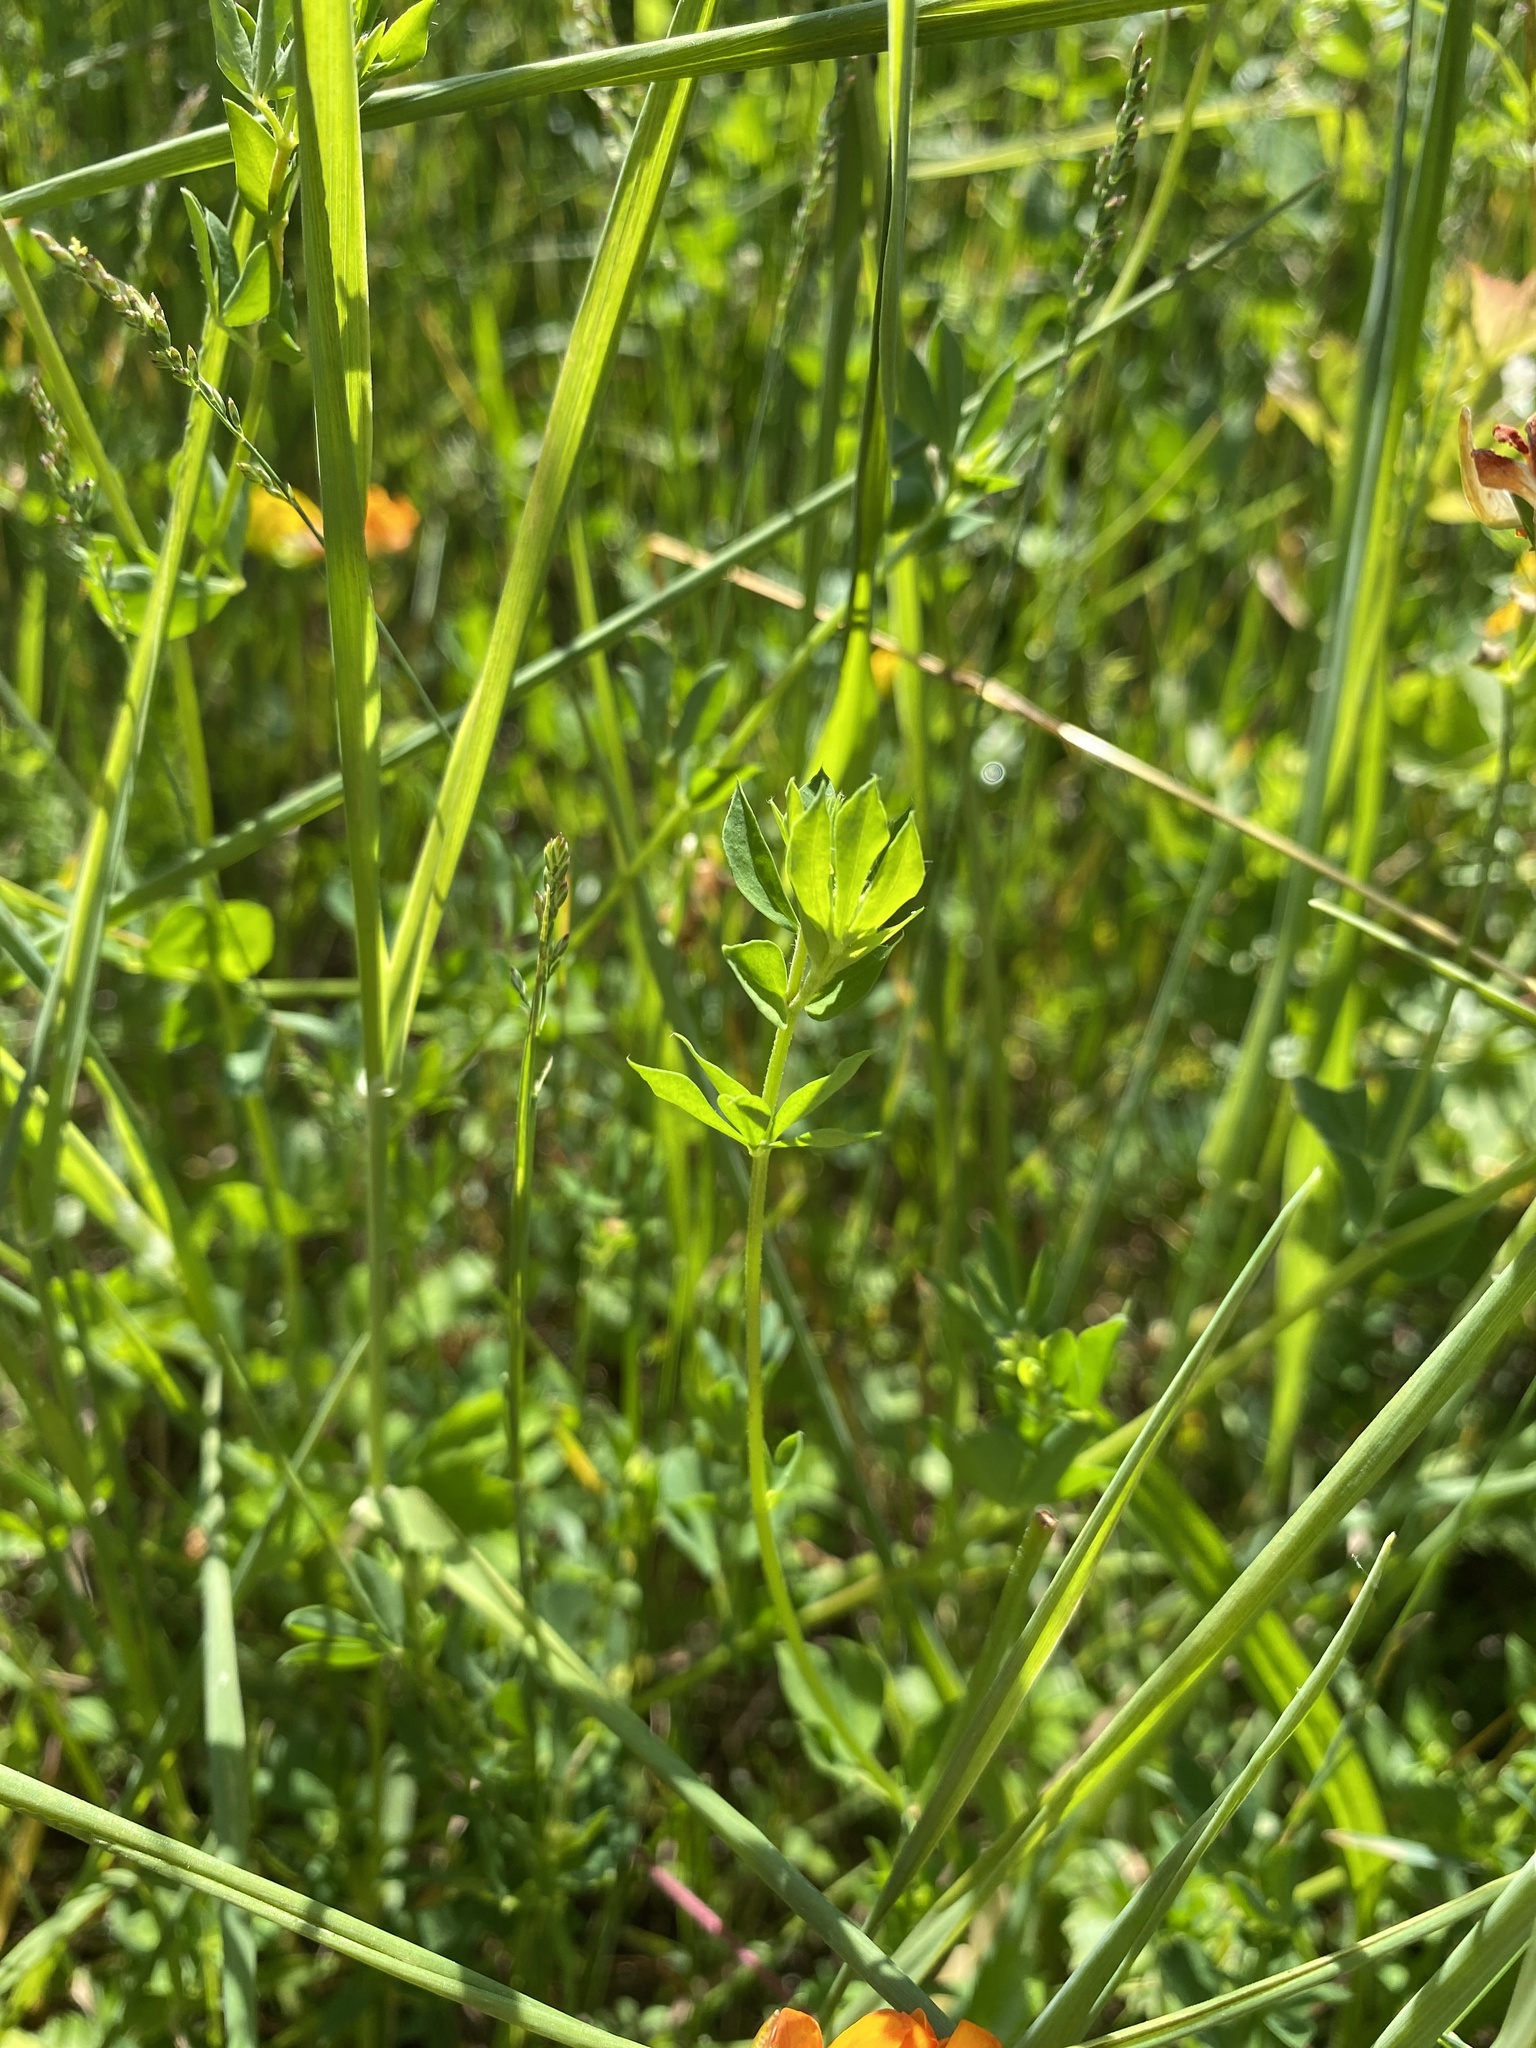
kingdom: Plantae
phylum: Tracheophyta
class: Magnoliopsida
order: Fabales
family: Fabaceae
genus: Lotus
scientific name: Lotus corniculatus
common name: Common bird's-foot-trefoil
